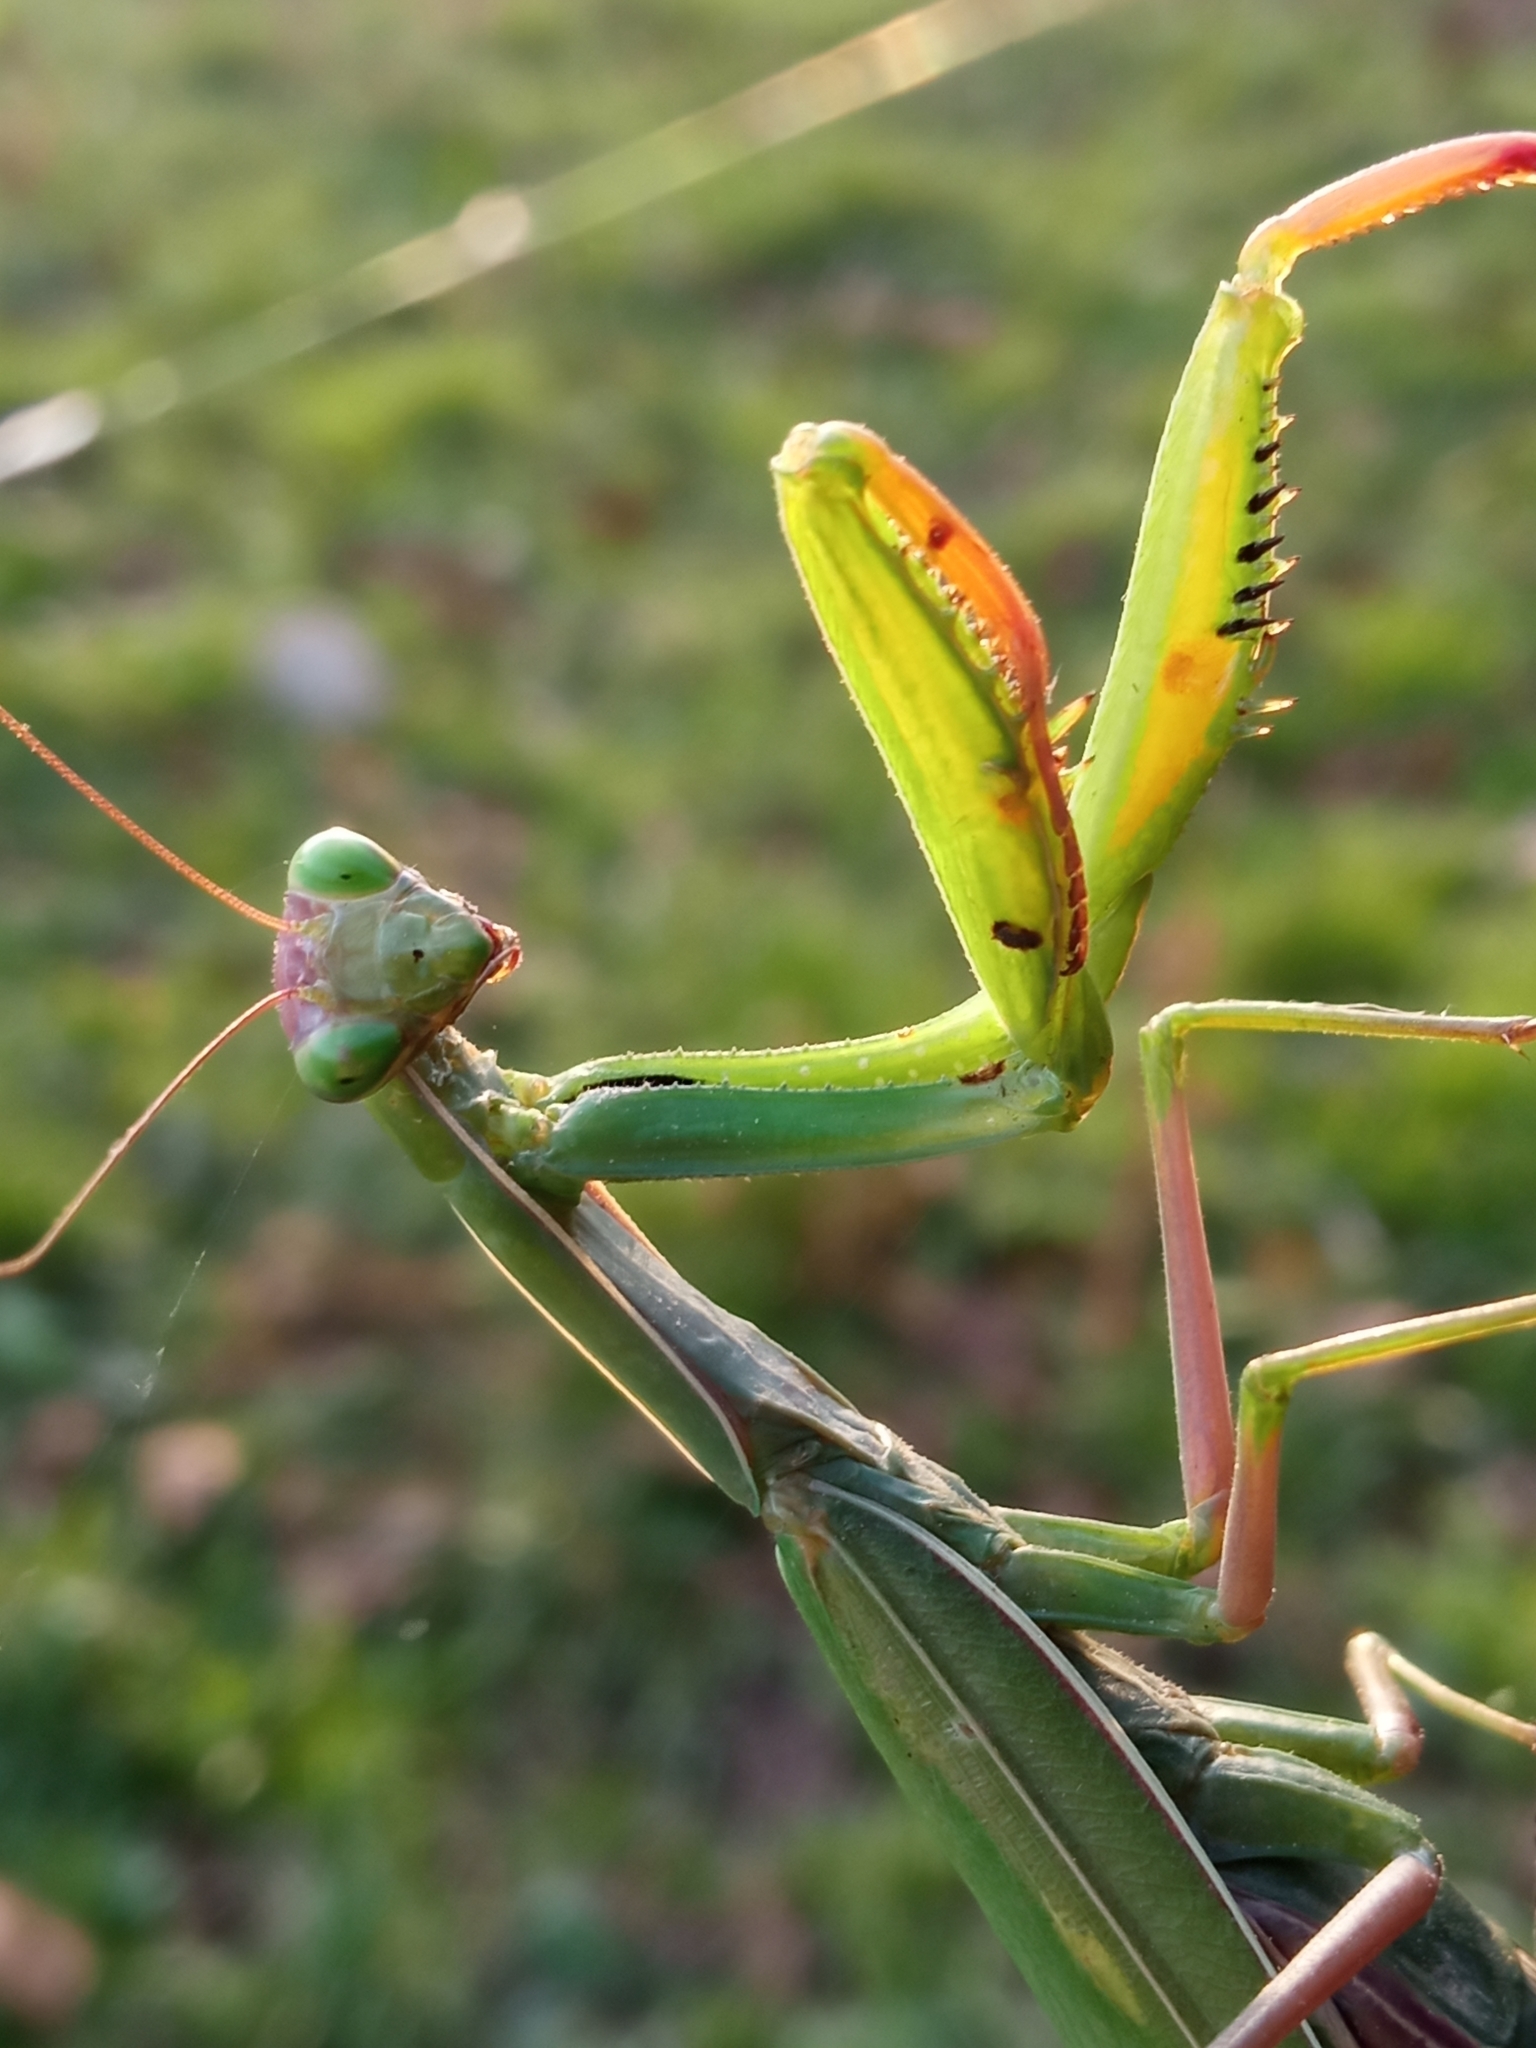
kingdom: Animalia
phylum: Arthropoda
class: Insecta
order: Mantodea
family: Mantidae
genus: Mantis
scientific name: Mantis religiosa
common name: Praying mantis
